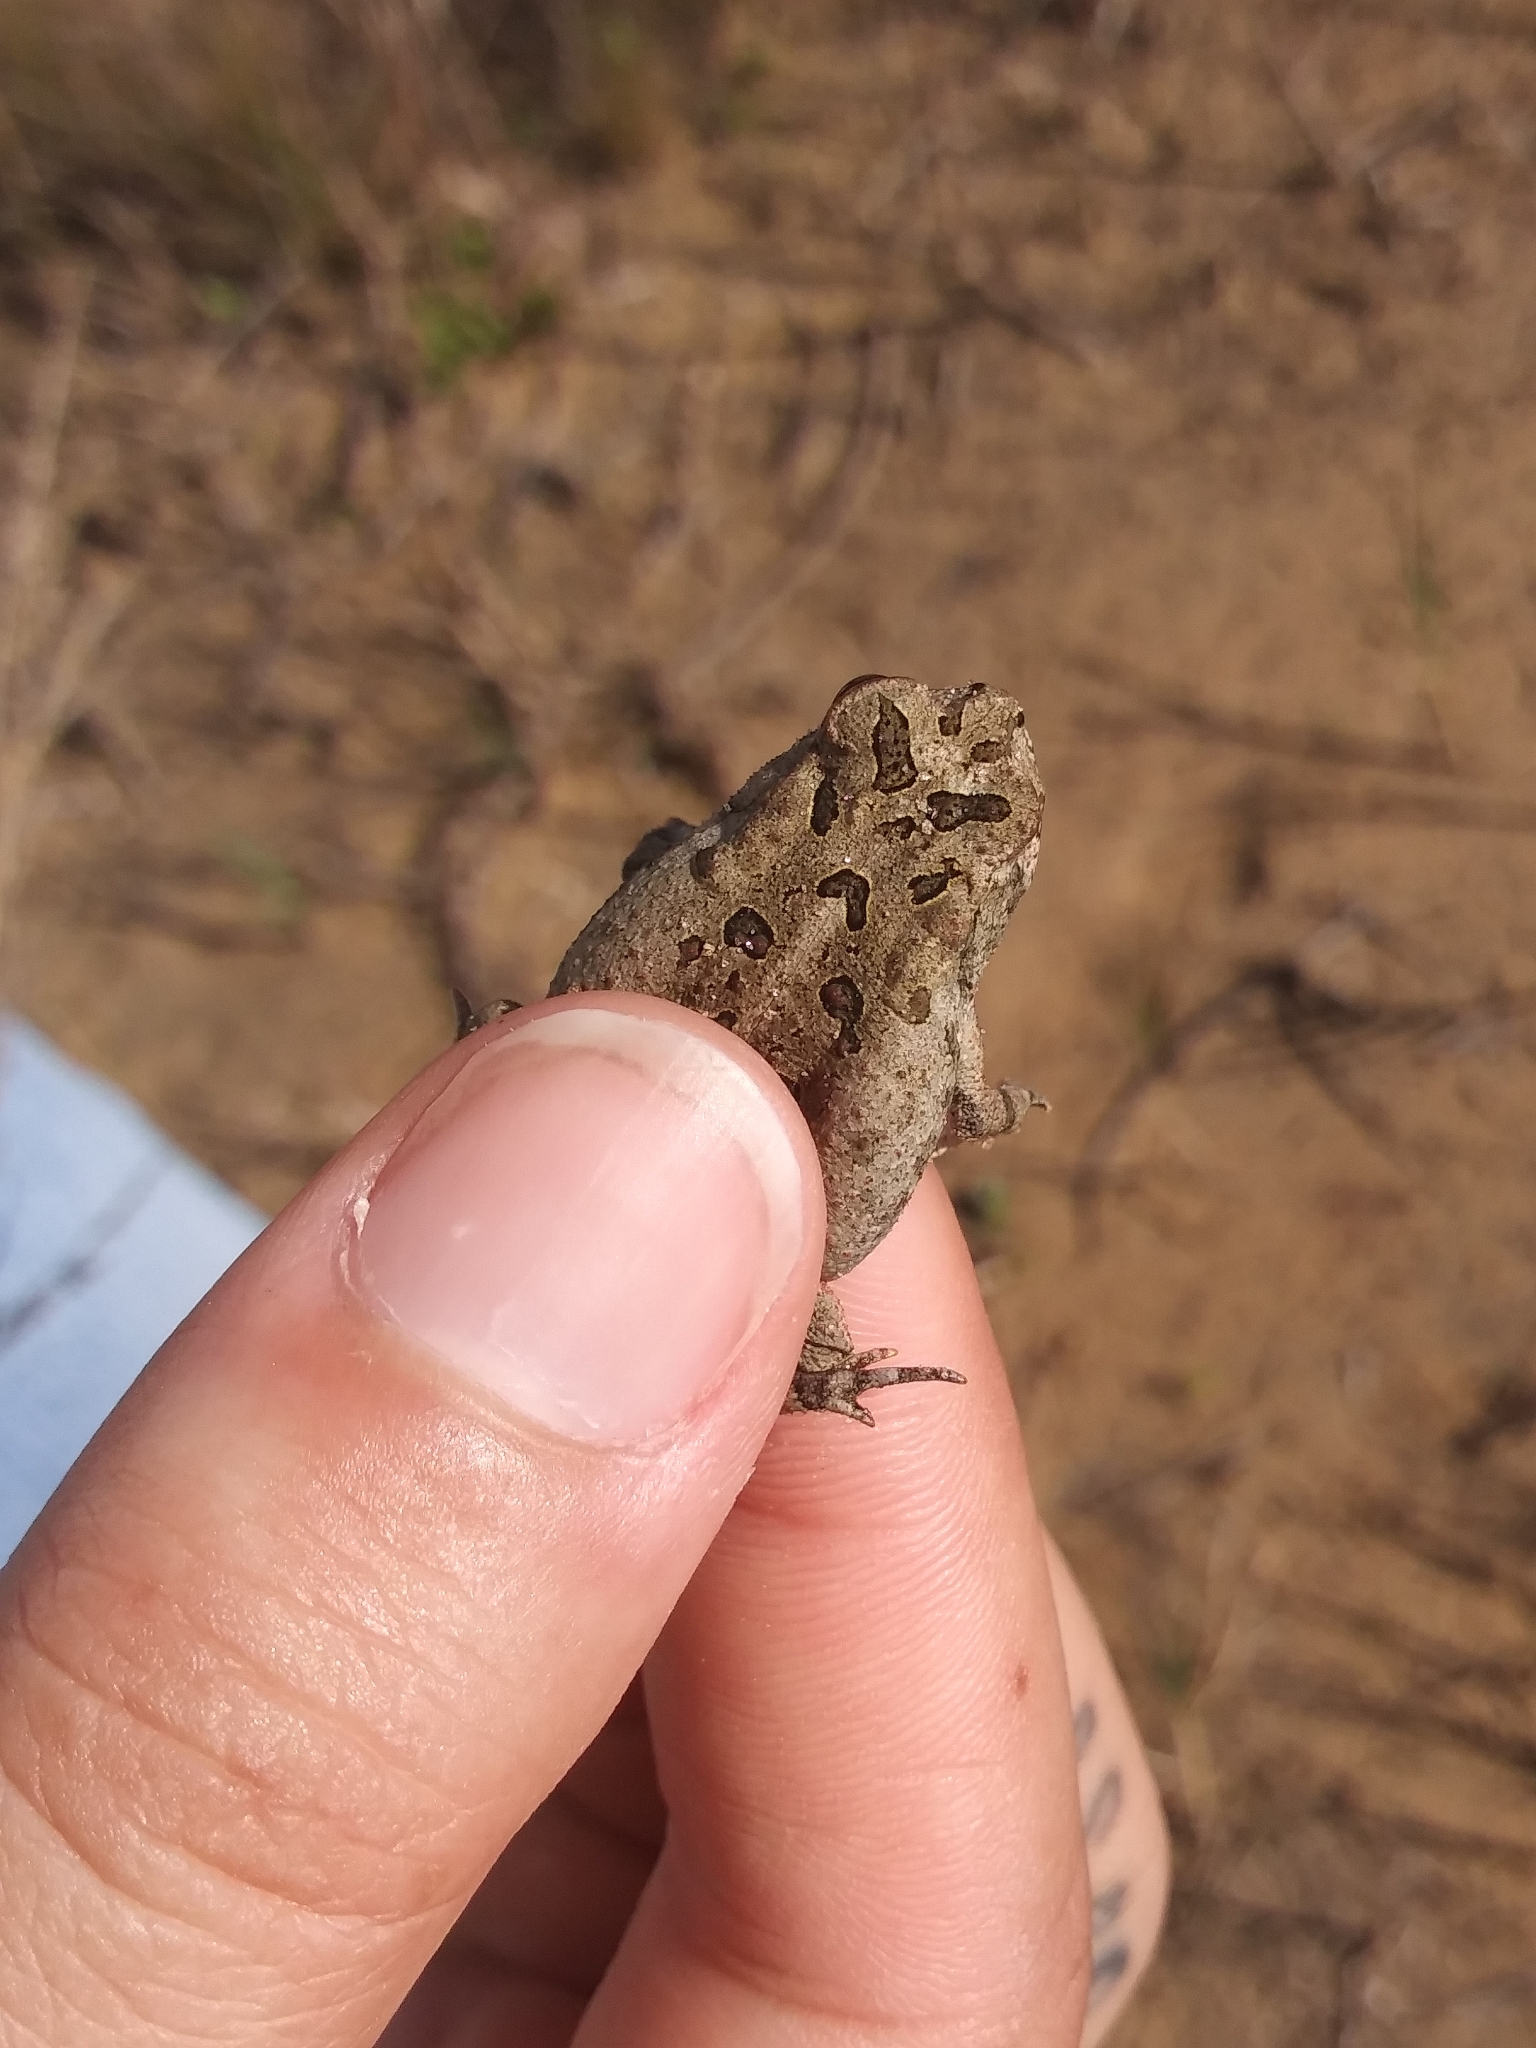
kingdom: Animalia
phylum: Chordata
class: Amphibia
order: Anura
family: Bufonidae
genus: Anaxyrus
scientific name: Anaxyrus terrestris
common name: Southern toad
